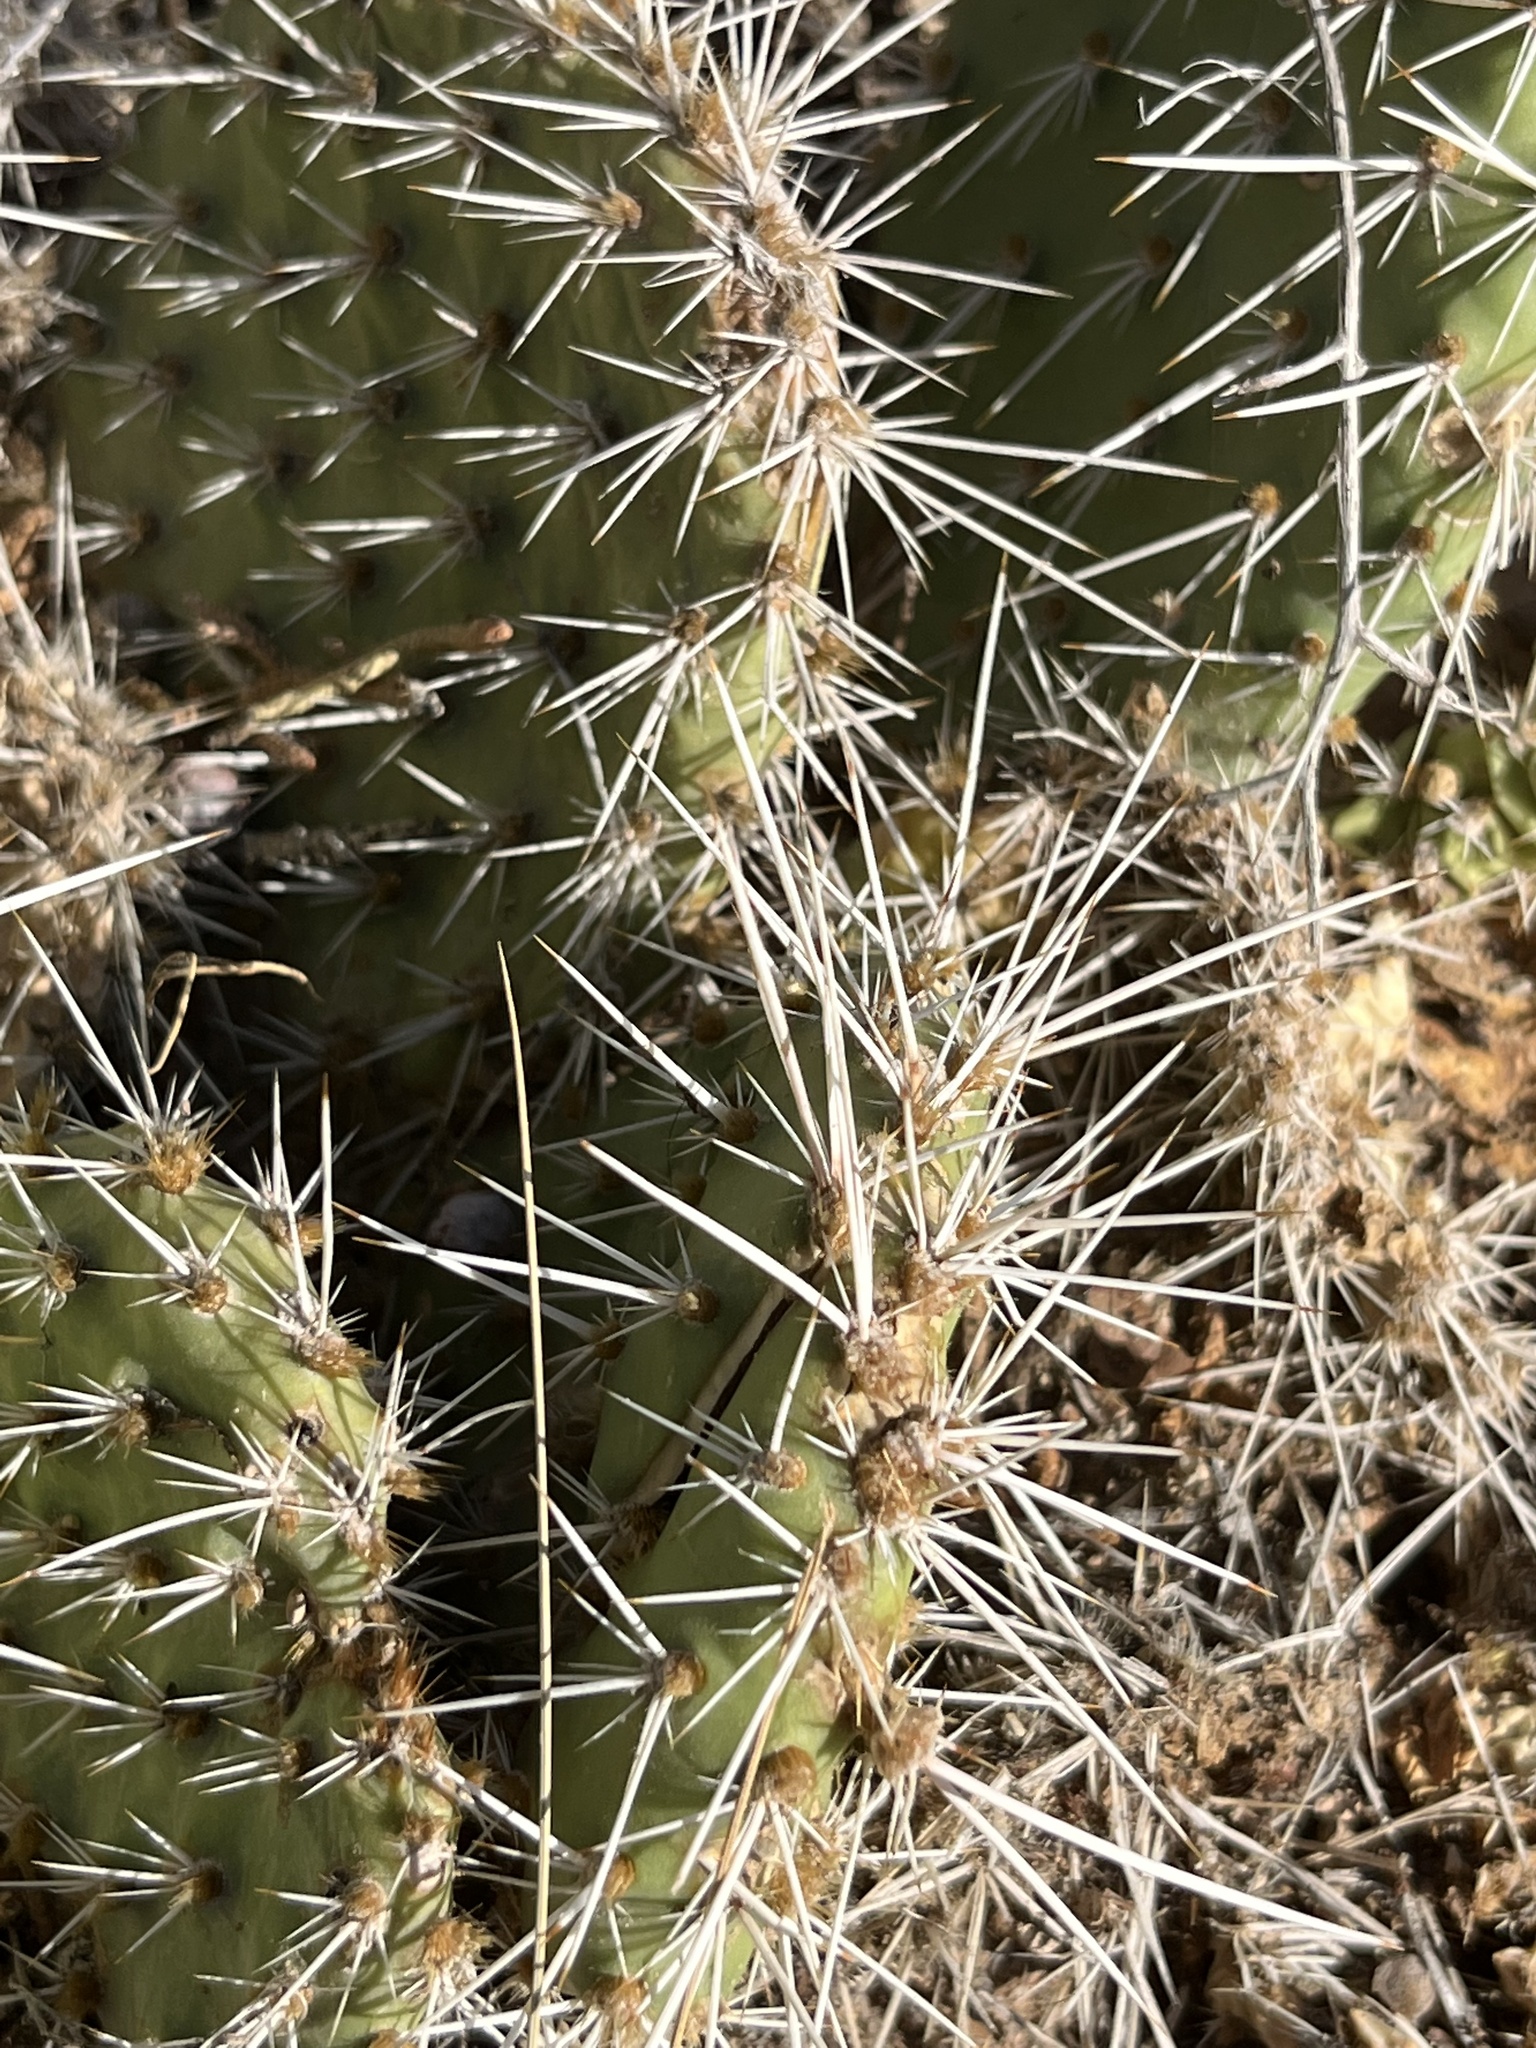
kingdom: Plantae
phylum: Tracheophyta
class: Magnoliopsida
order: Caryophyllales
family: Cactaceae
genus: Opuntia
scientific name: Opuntia polyacantha
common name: Plains prickly-pear
